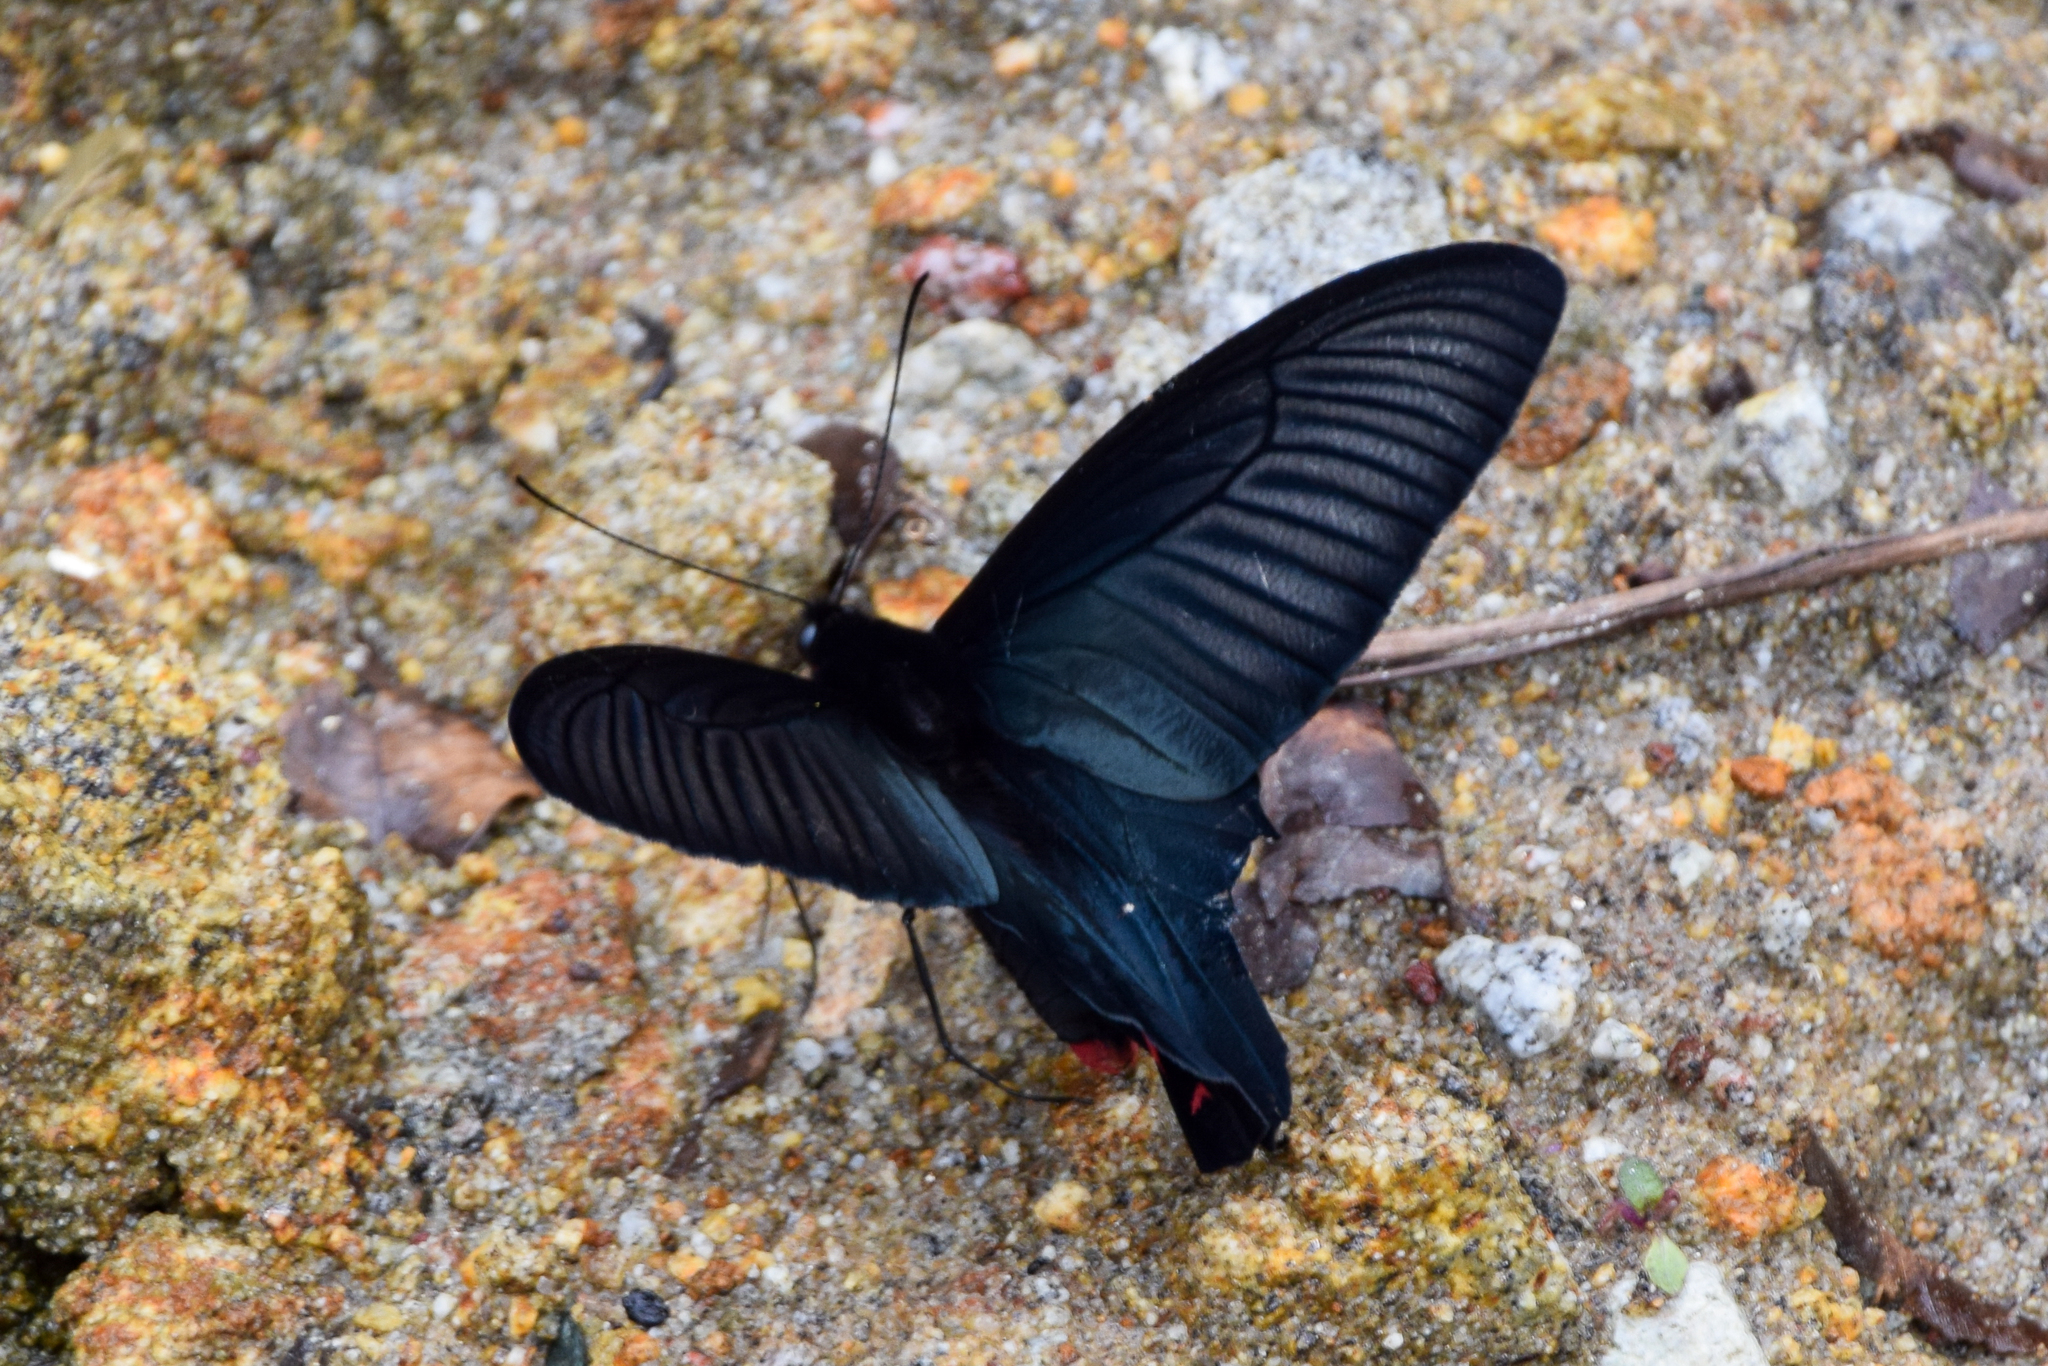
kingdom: Animalia
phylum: Arthropoda
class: Insecta
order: Lepidoptera
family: Papilionidae
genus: Atrophaneura
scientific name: Atrophaneura dixoni
